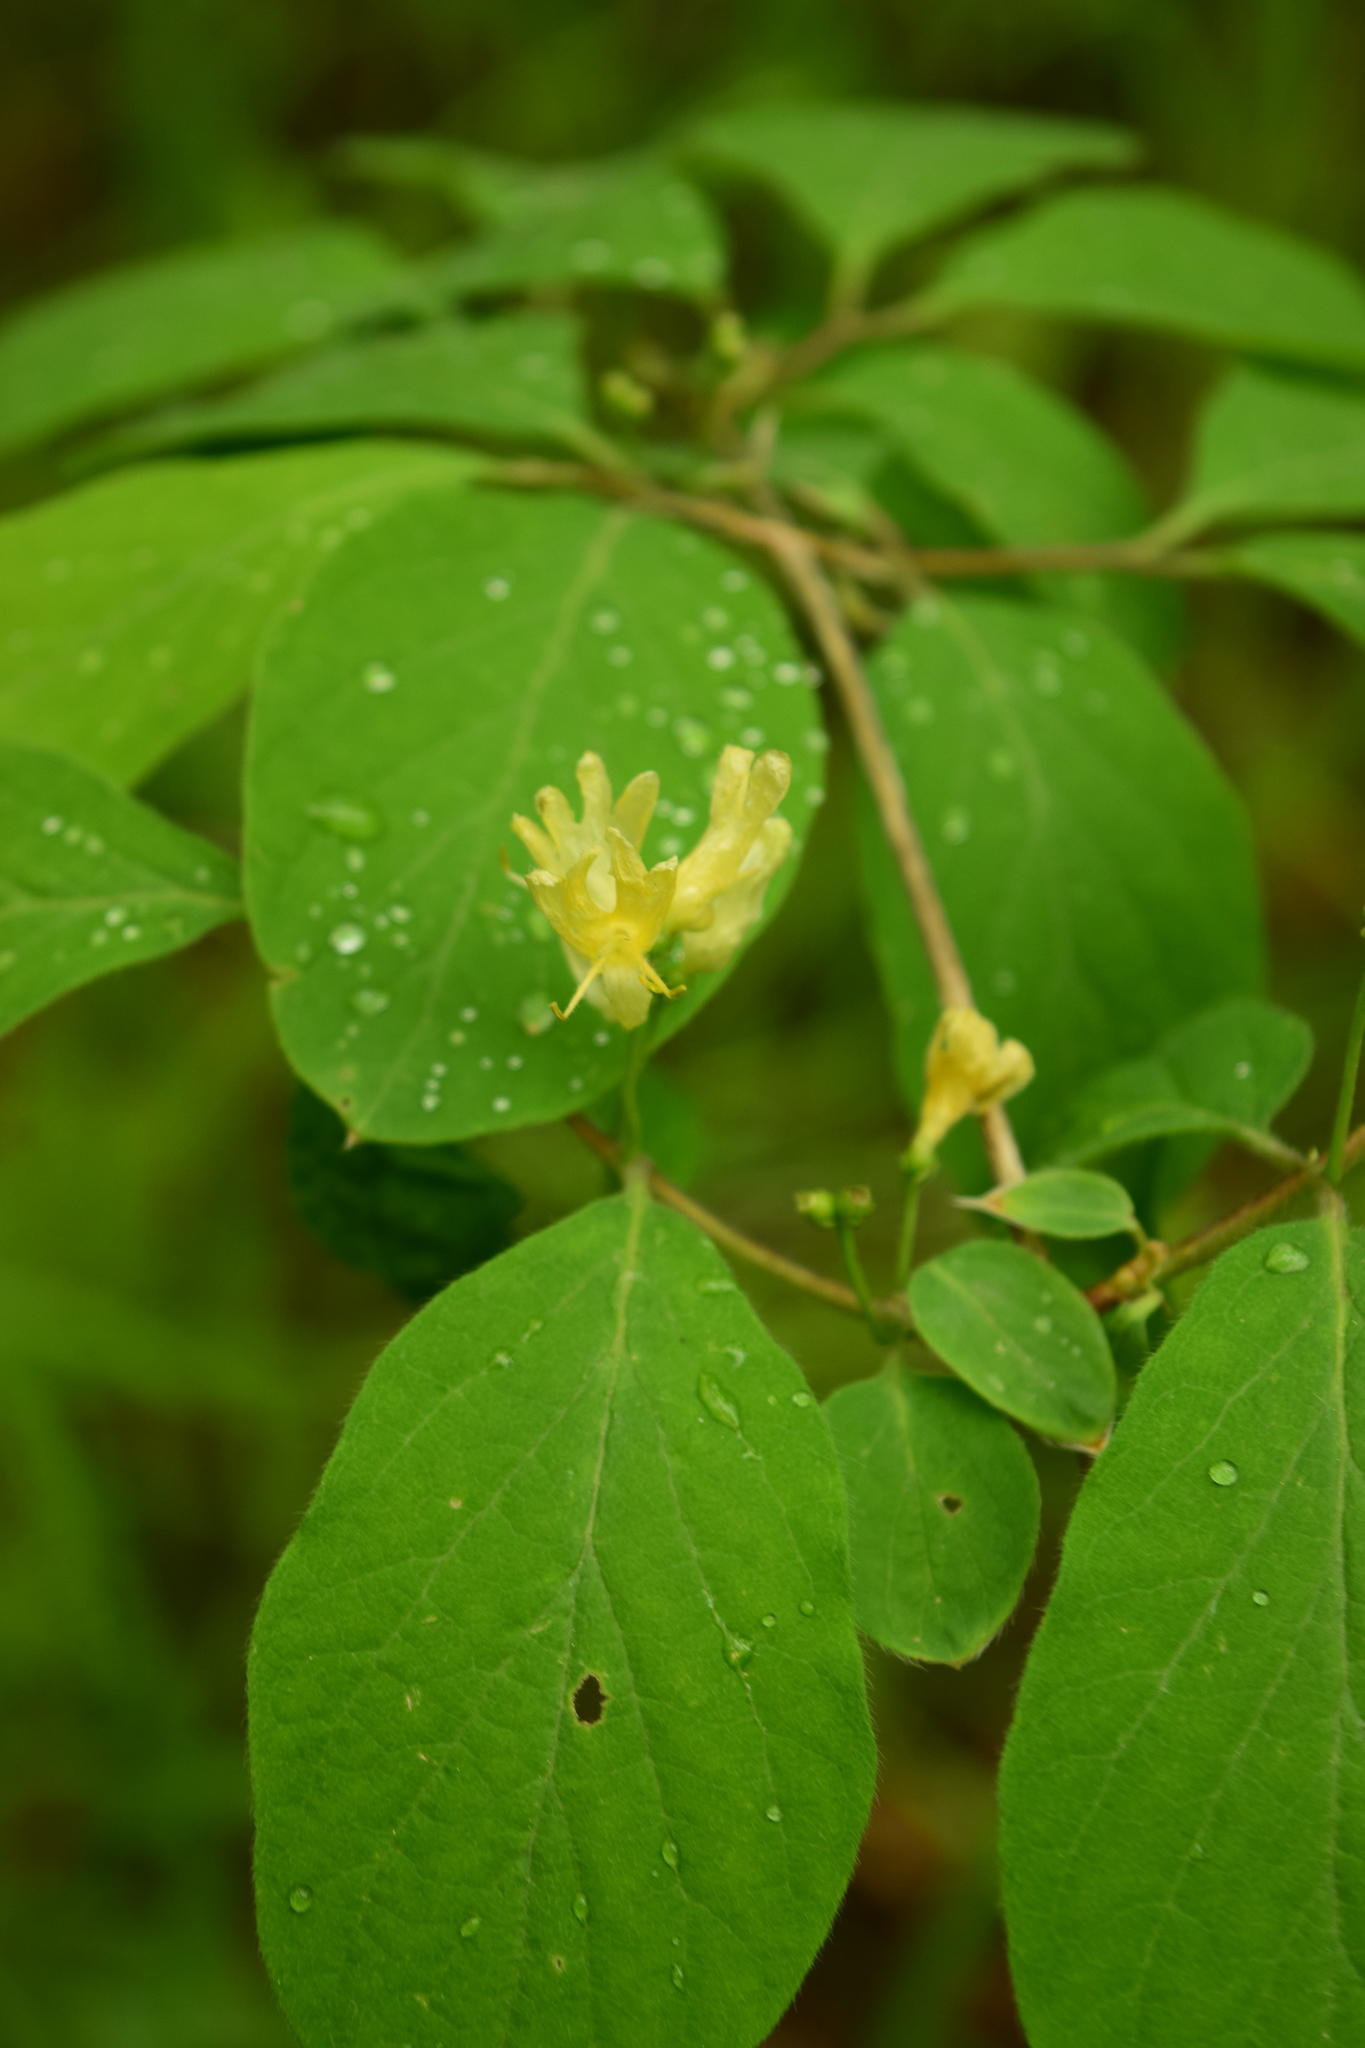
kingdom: Plantae
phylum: Tracheophyta
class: Magnoliopsida
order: Dipsacales
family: Caprifoliaceae
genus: Lonicera
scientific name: Lonicera xylosteum
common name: Fly honeysuckle
